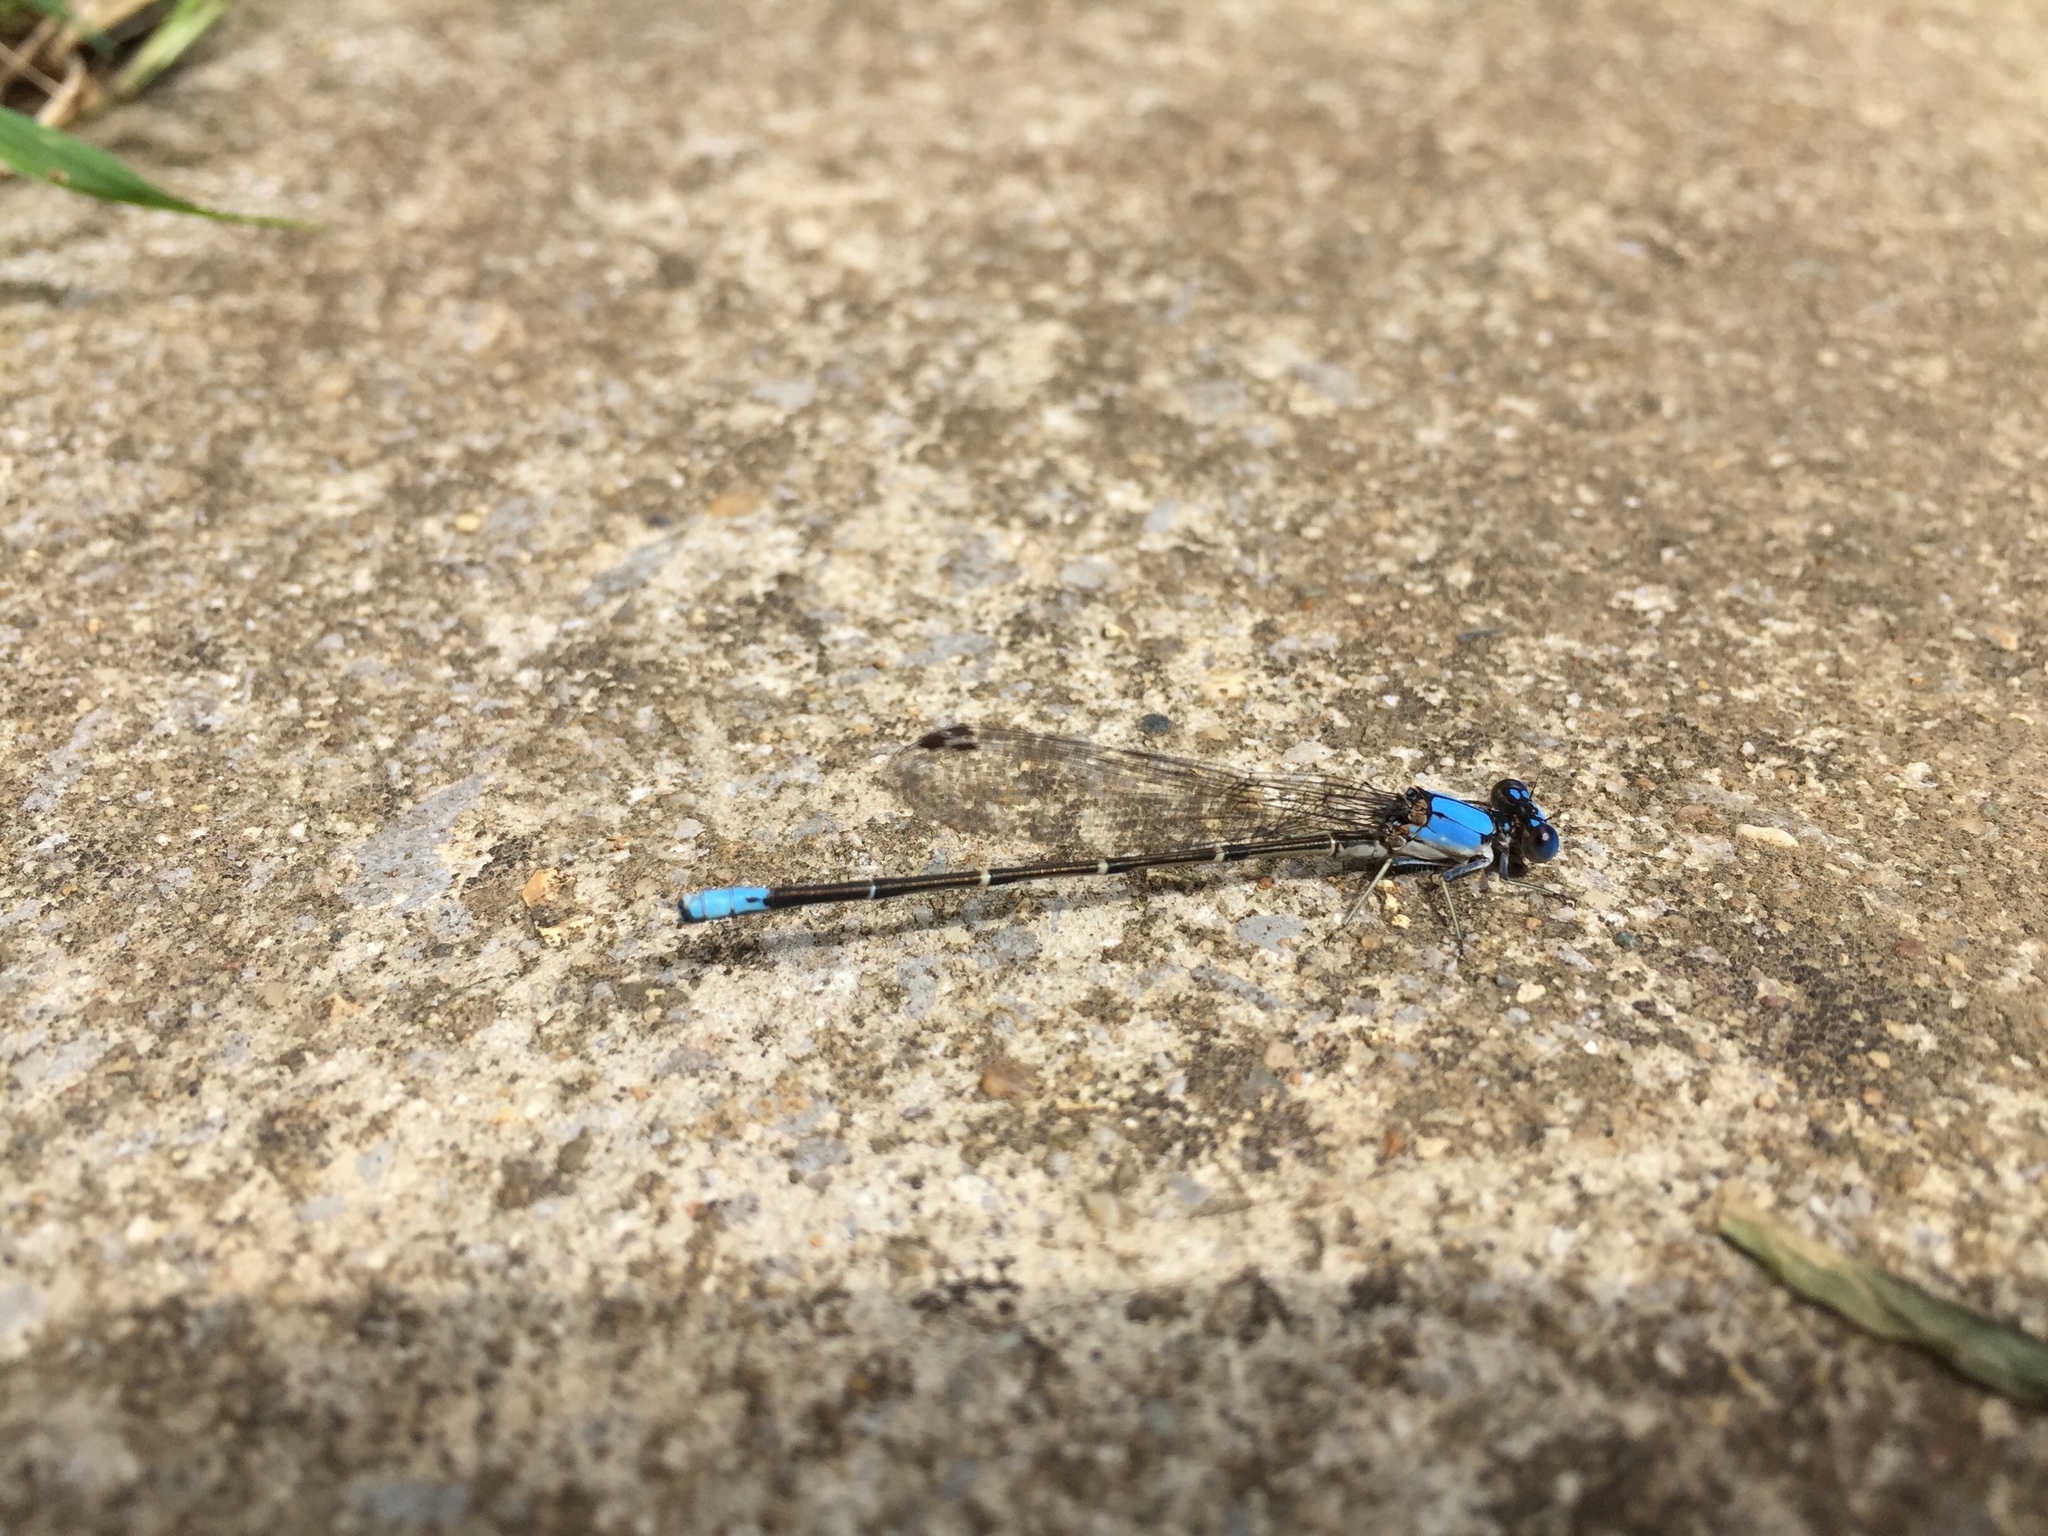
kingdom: Animalia
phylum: Arthropoda
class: Insecta
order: Odonata
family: Coenagrionidae
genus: Argia
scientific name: Argia apicalis
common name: Blue-fronted dancer
